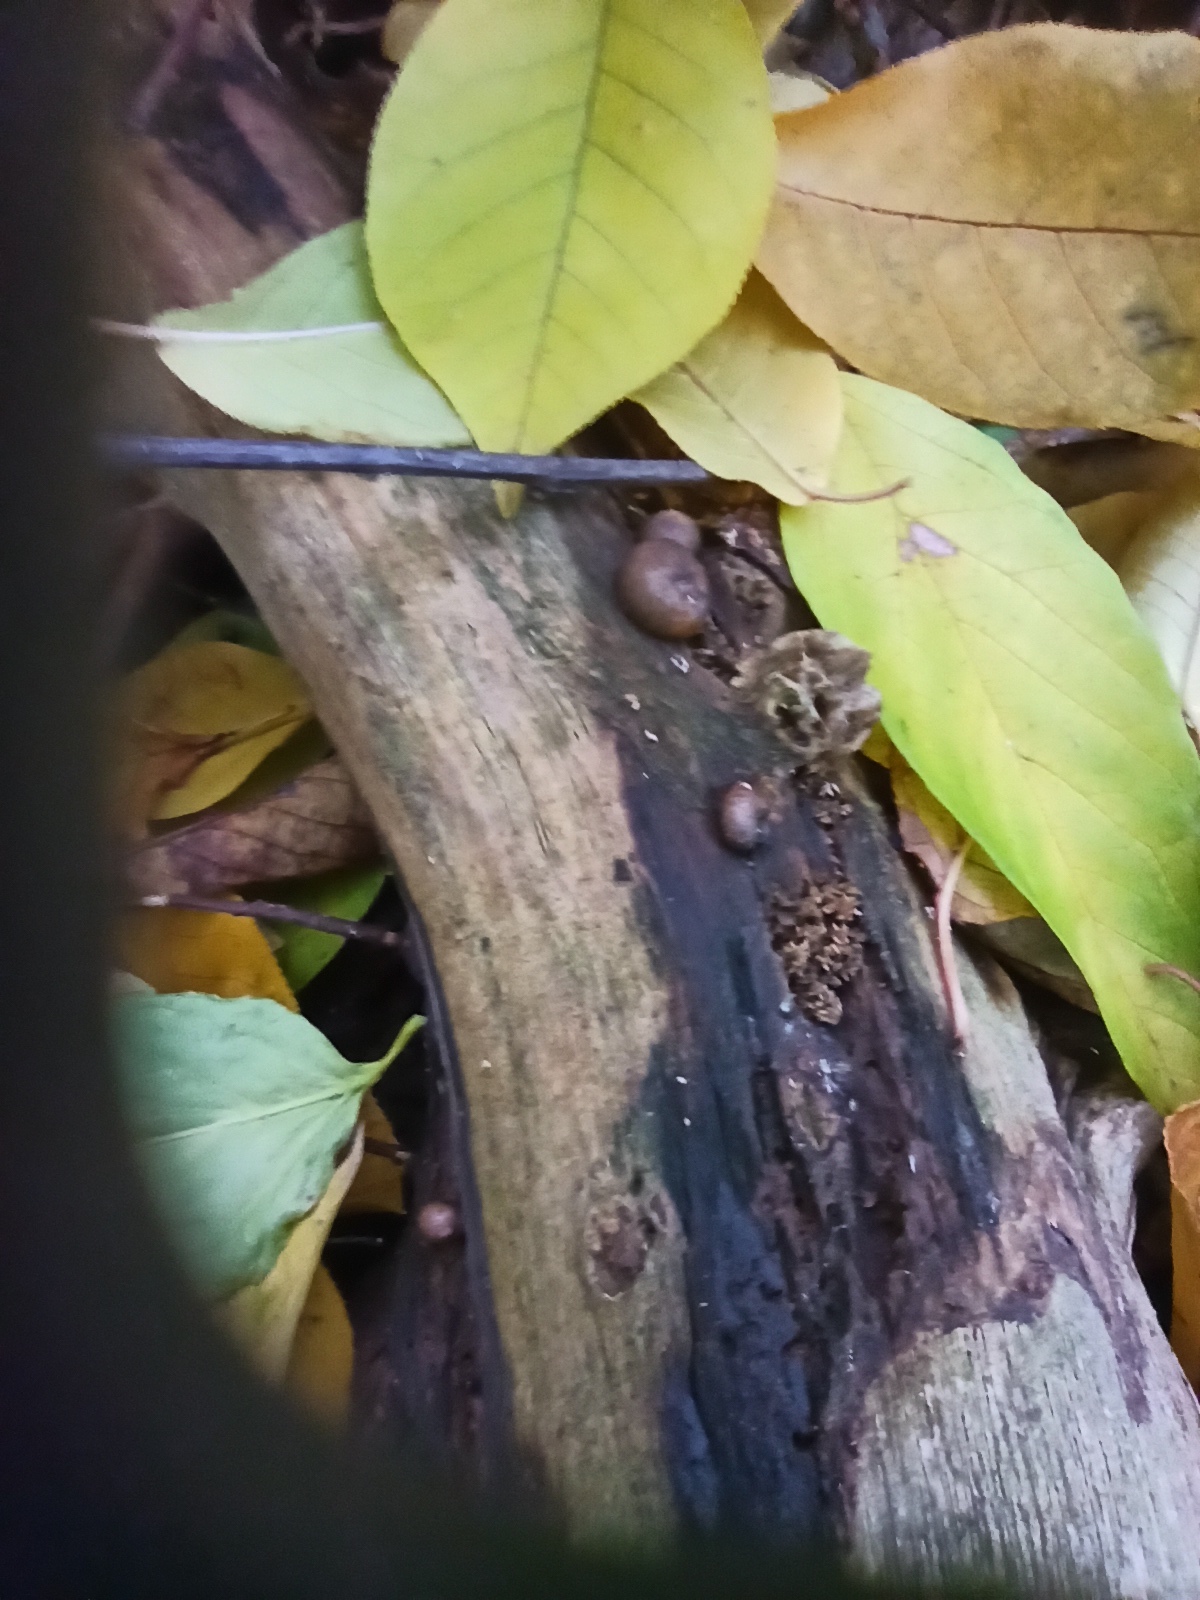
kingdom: Protozoa
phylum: Mycetozoa
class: Myxomycetes
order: Cribrariales
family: Tubiferaceae
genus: Lycogala
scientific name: Lycogala epidendrum
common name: Wolf's milk
